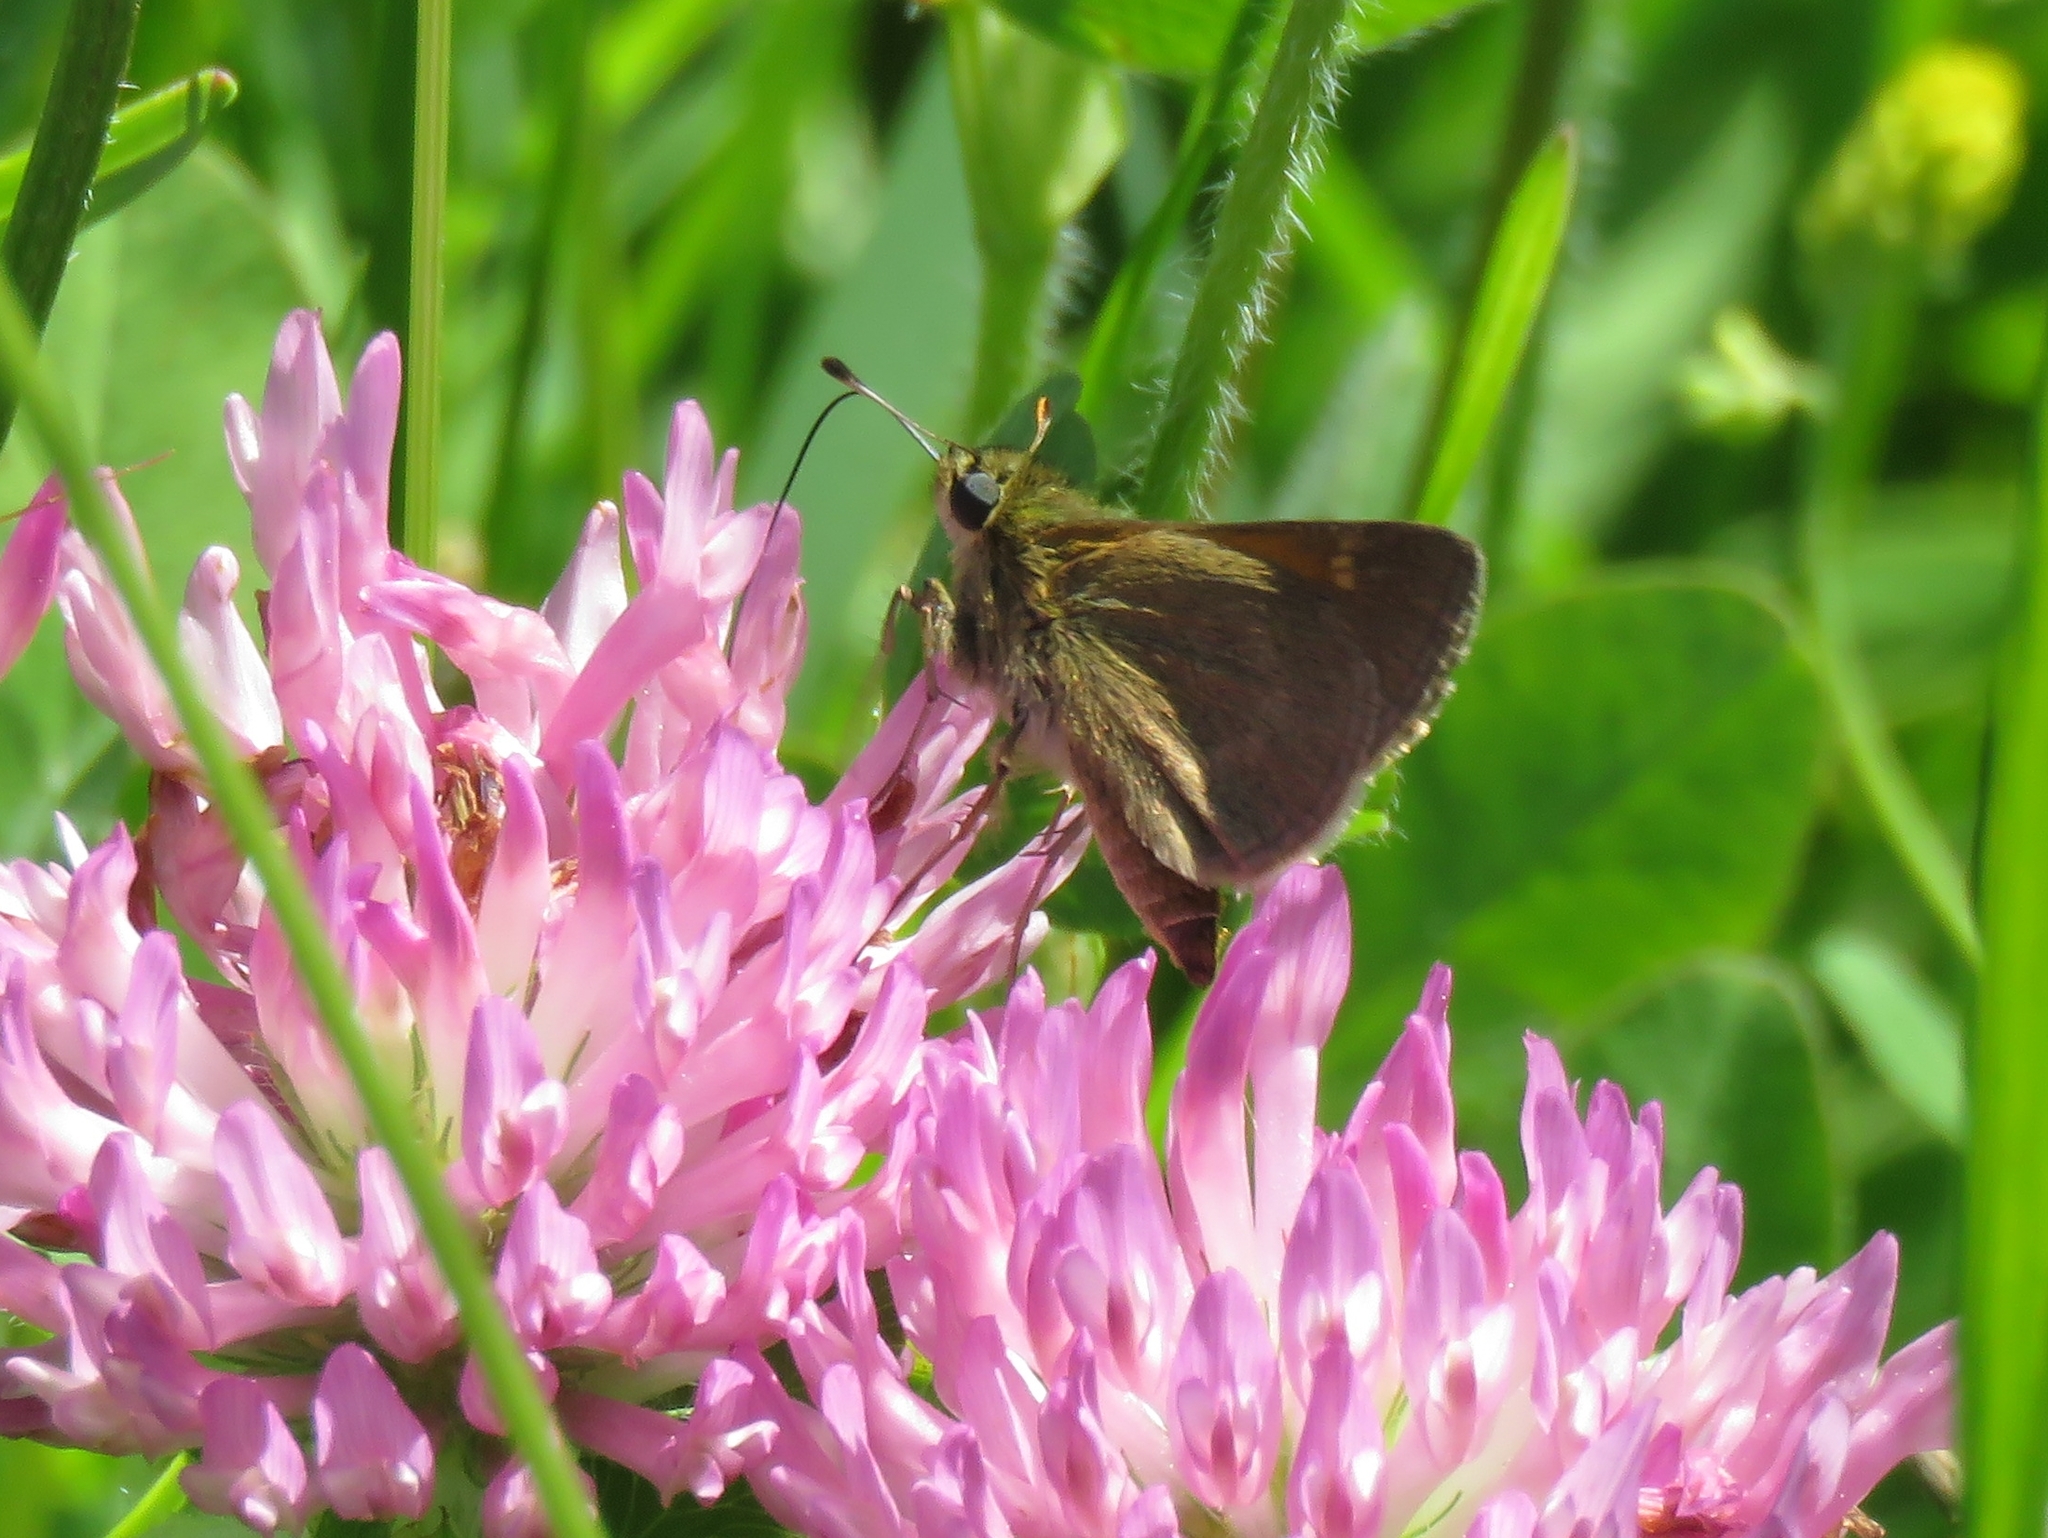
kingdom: Animalia
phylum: Arthropoda
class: Insecta
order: Lepidoptera
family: Hesperiidae
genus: Polites
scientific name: Polites themistocles
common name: Tawny-edged skipper
